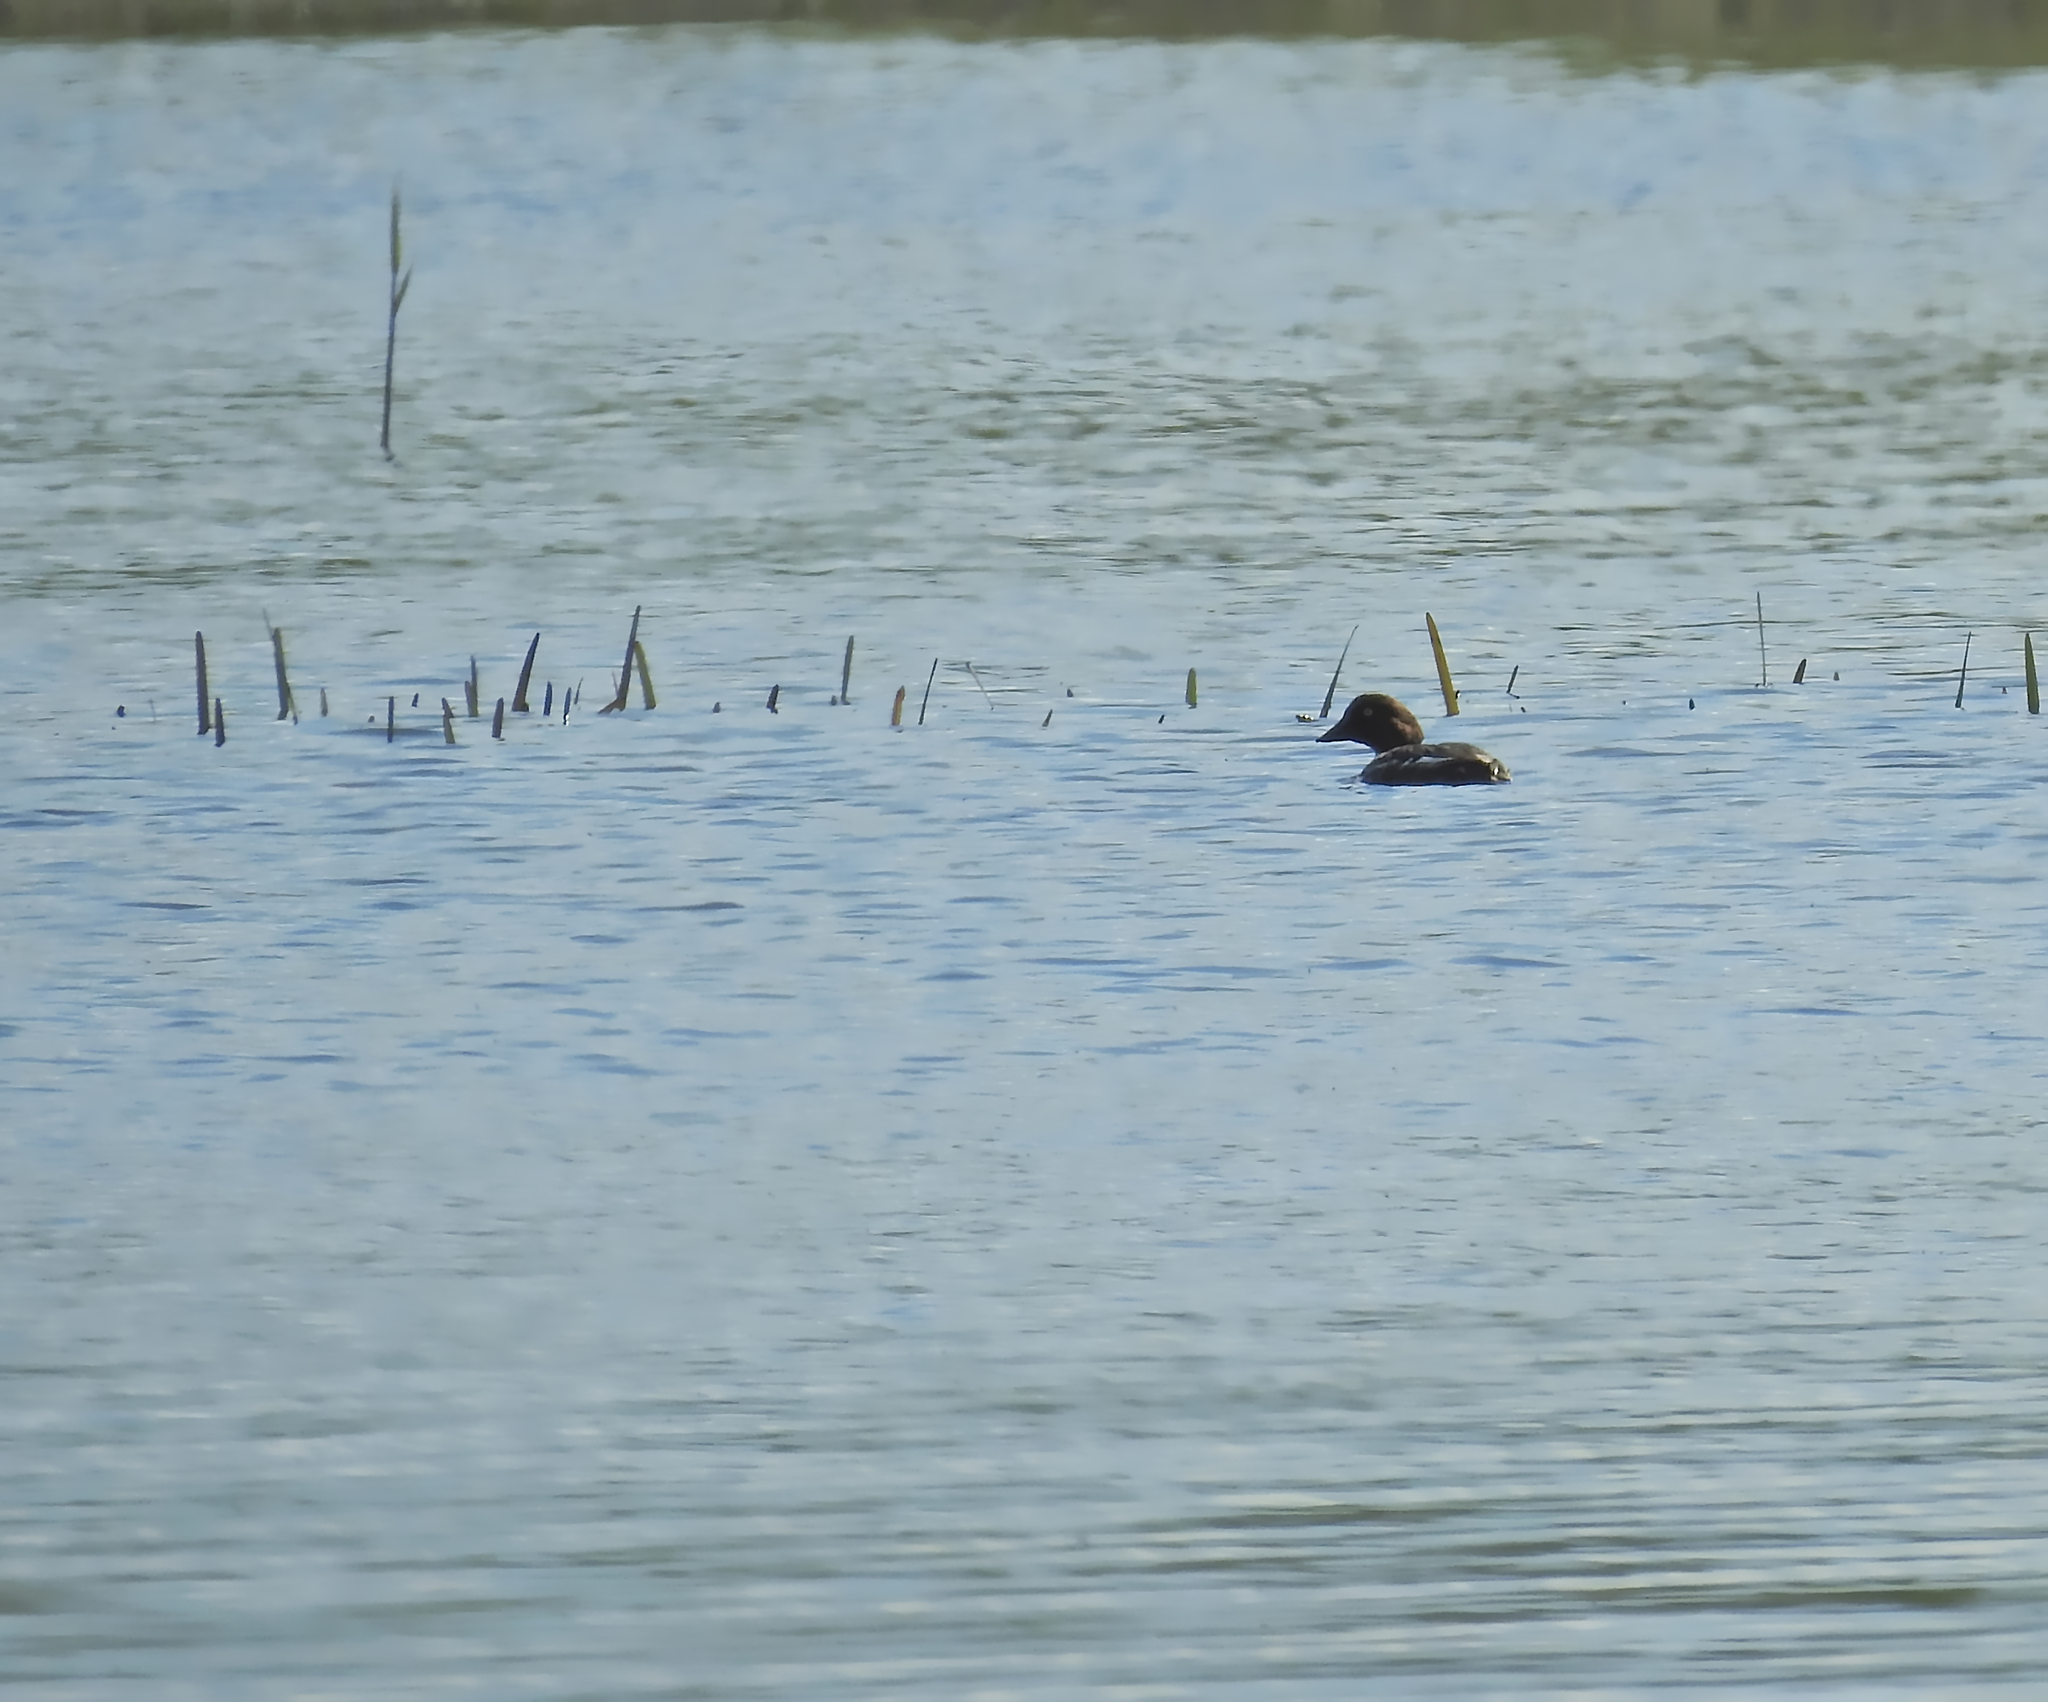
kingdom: Animalia
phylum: Chordata
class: Aves
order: Anseriformes
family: Anatidae
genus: Bucephala
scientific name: Bucephala clangula
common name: Common goldeneye
